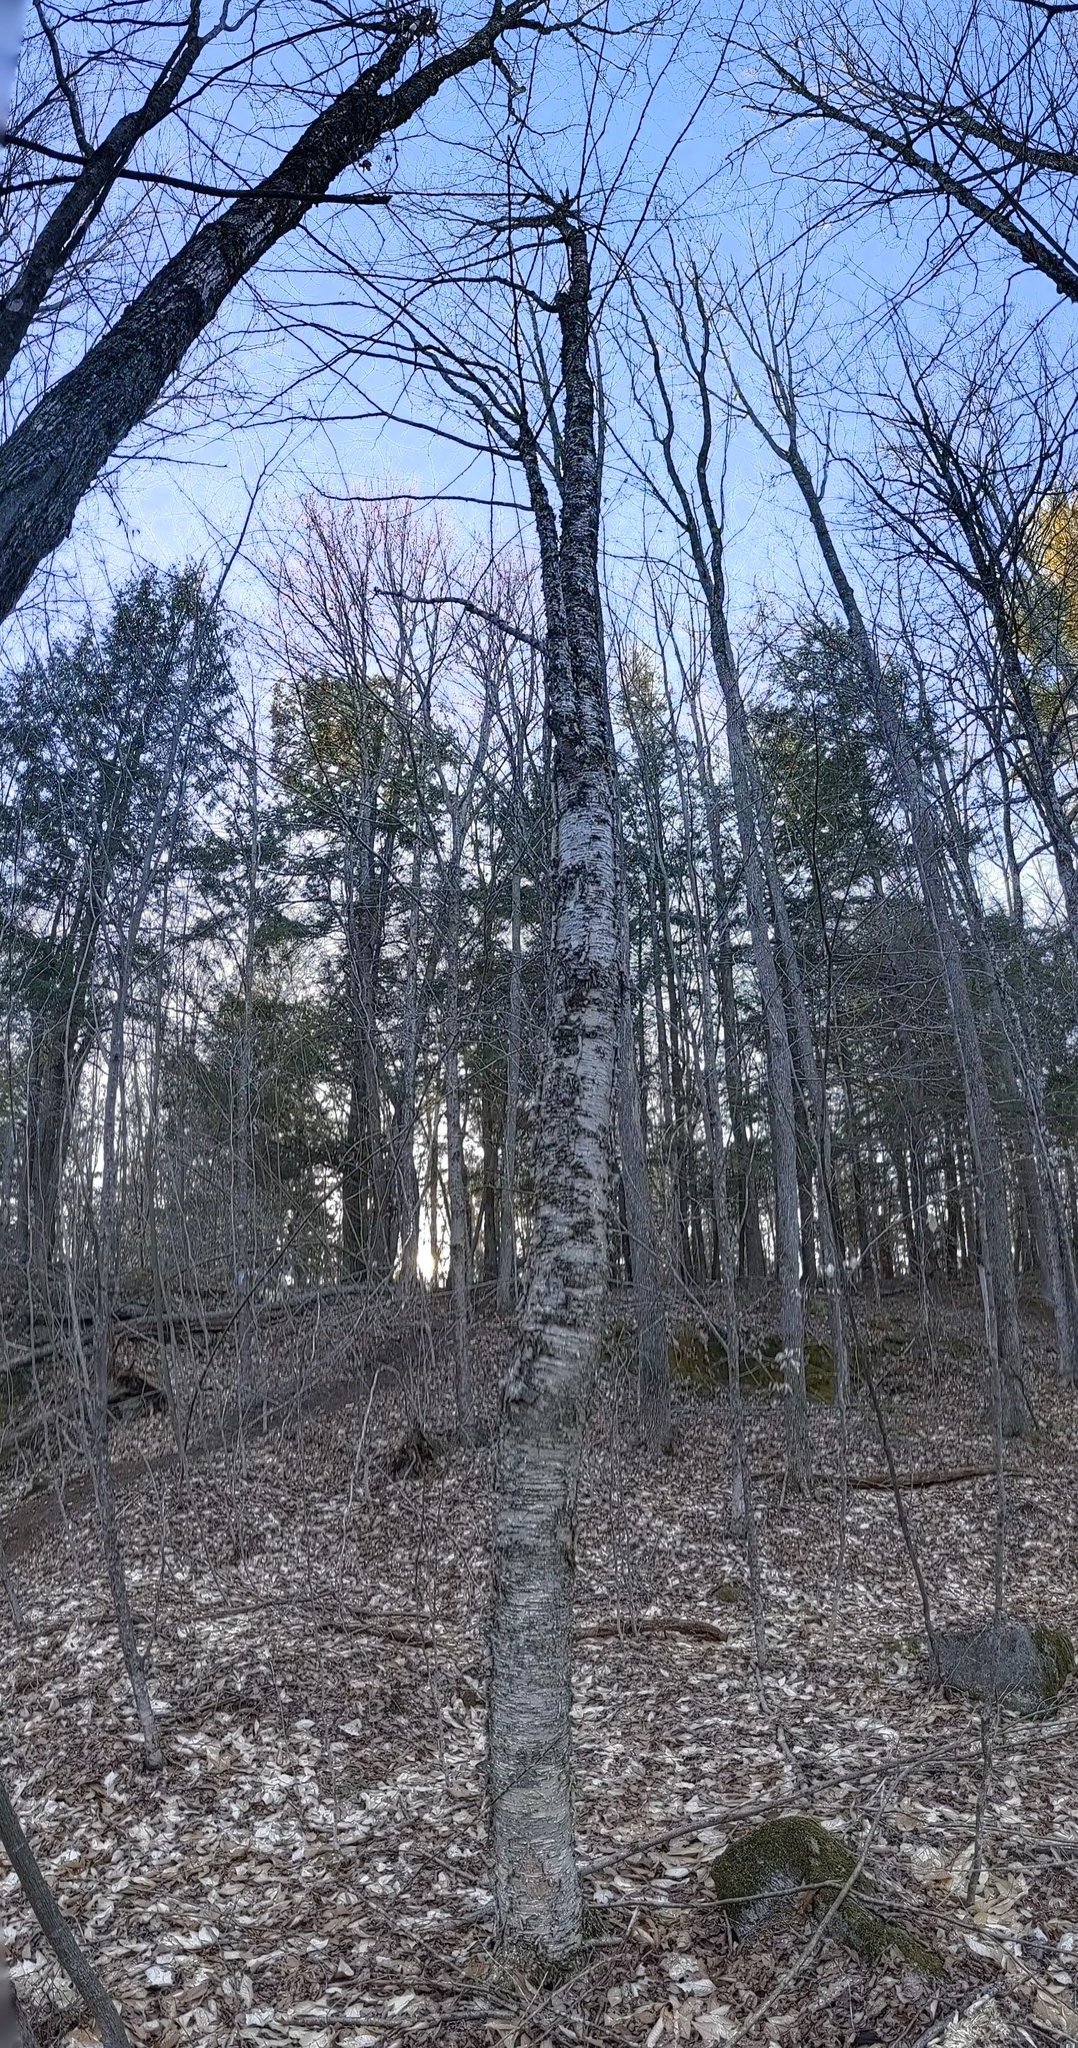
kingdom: Plantae
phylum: Tracheophyta
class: Magnoliopsida
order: Fagales
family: Betulaceae
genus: Betula
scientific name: Betula alleghaniensis
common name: Yellow birch
